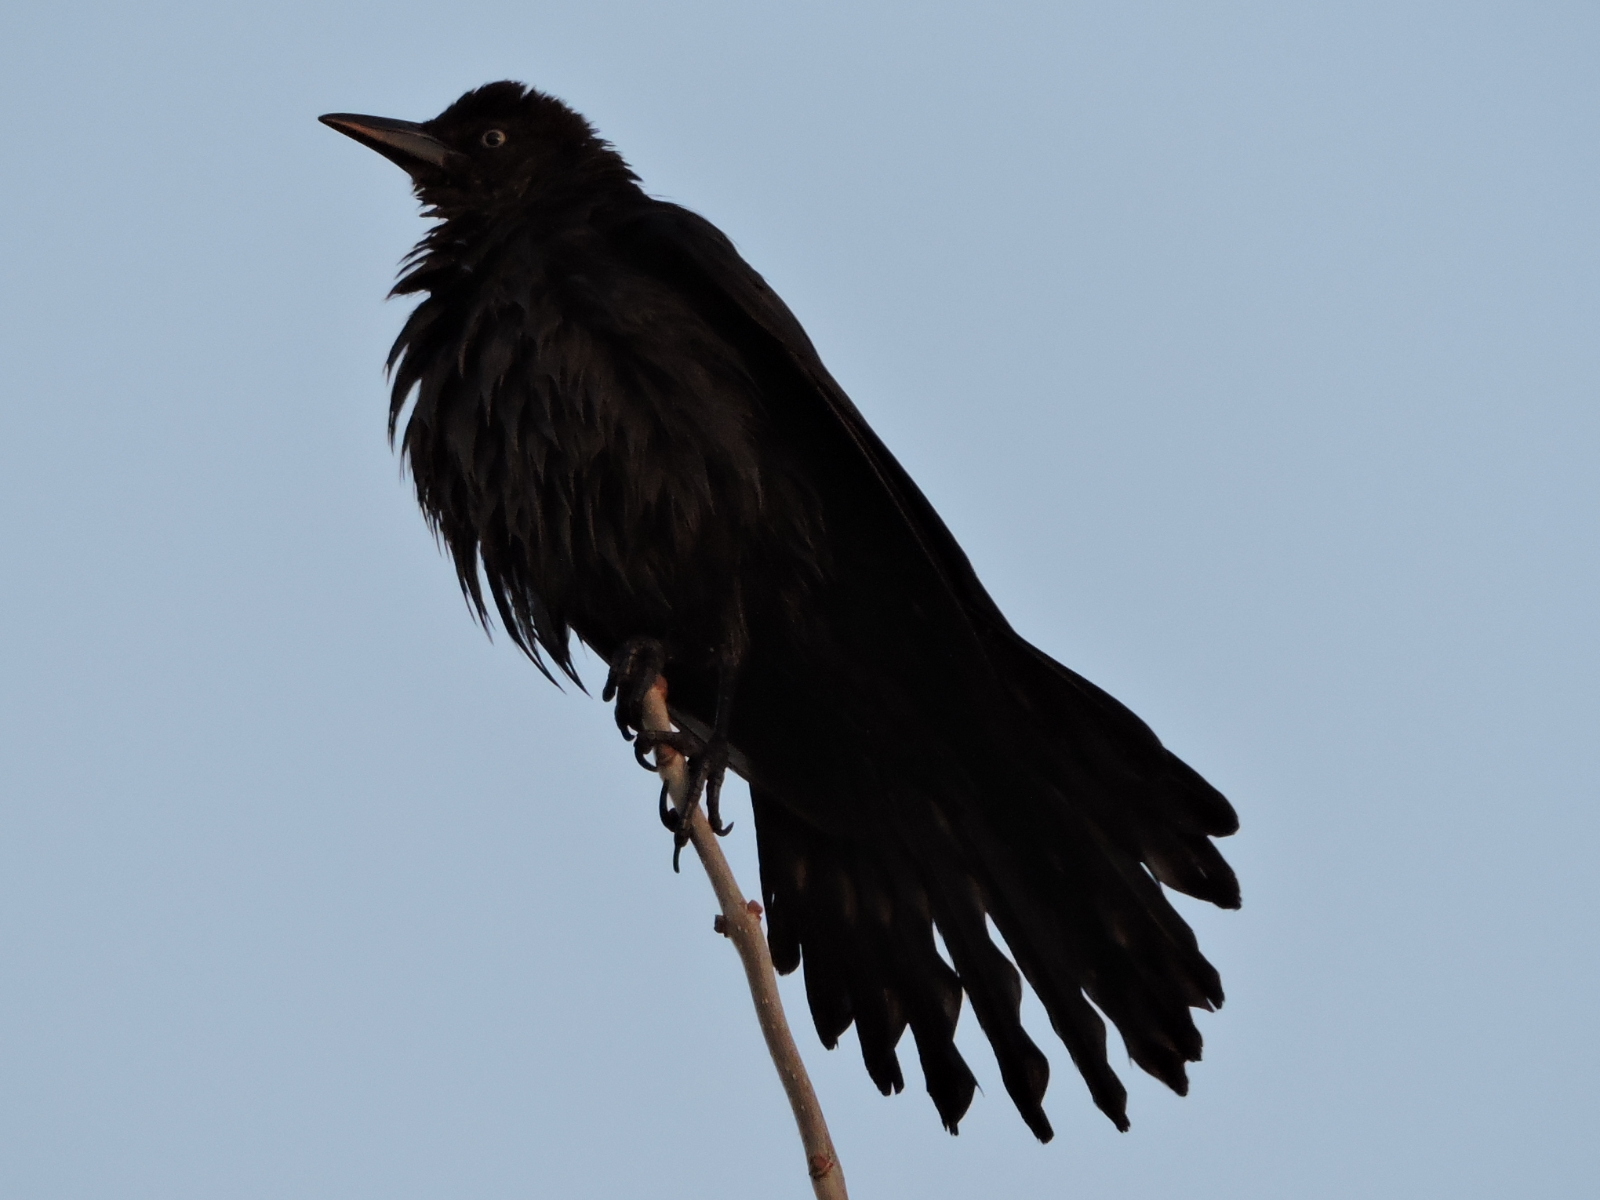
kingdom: Animalia
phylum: Chordata
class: Aves
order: Passeriformes
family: Icteridae
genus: Quiscalus
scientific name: Quiscalus mexicanus
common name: Great-tailed grackle
